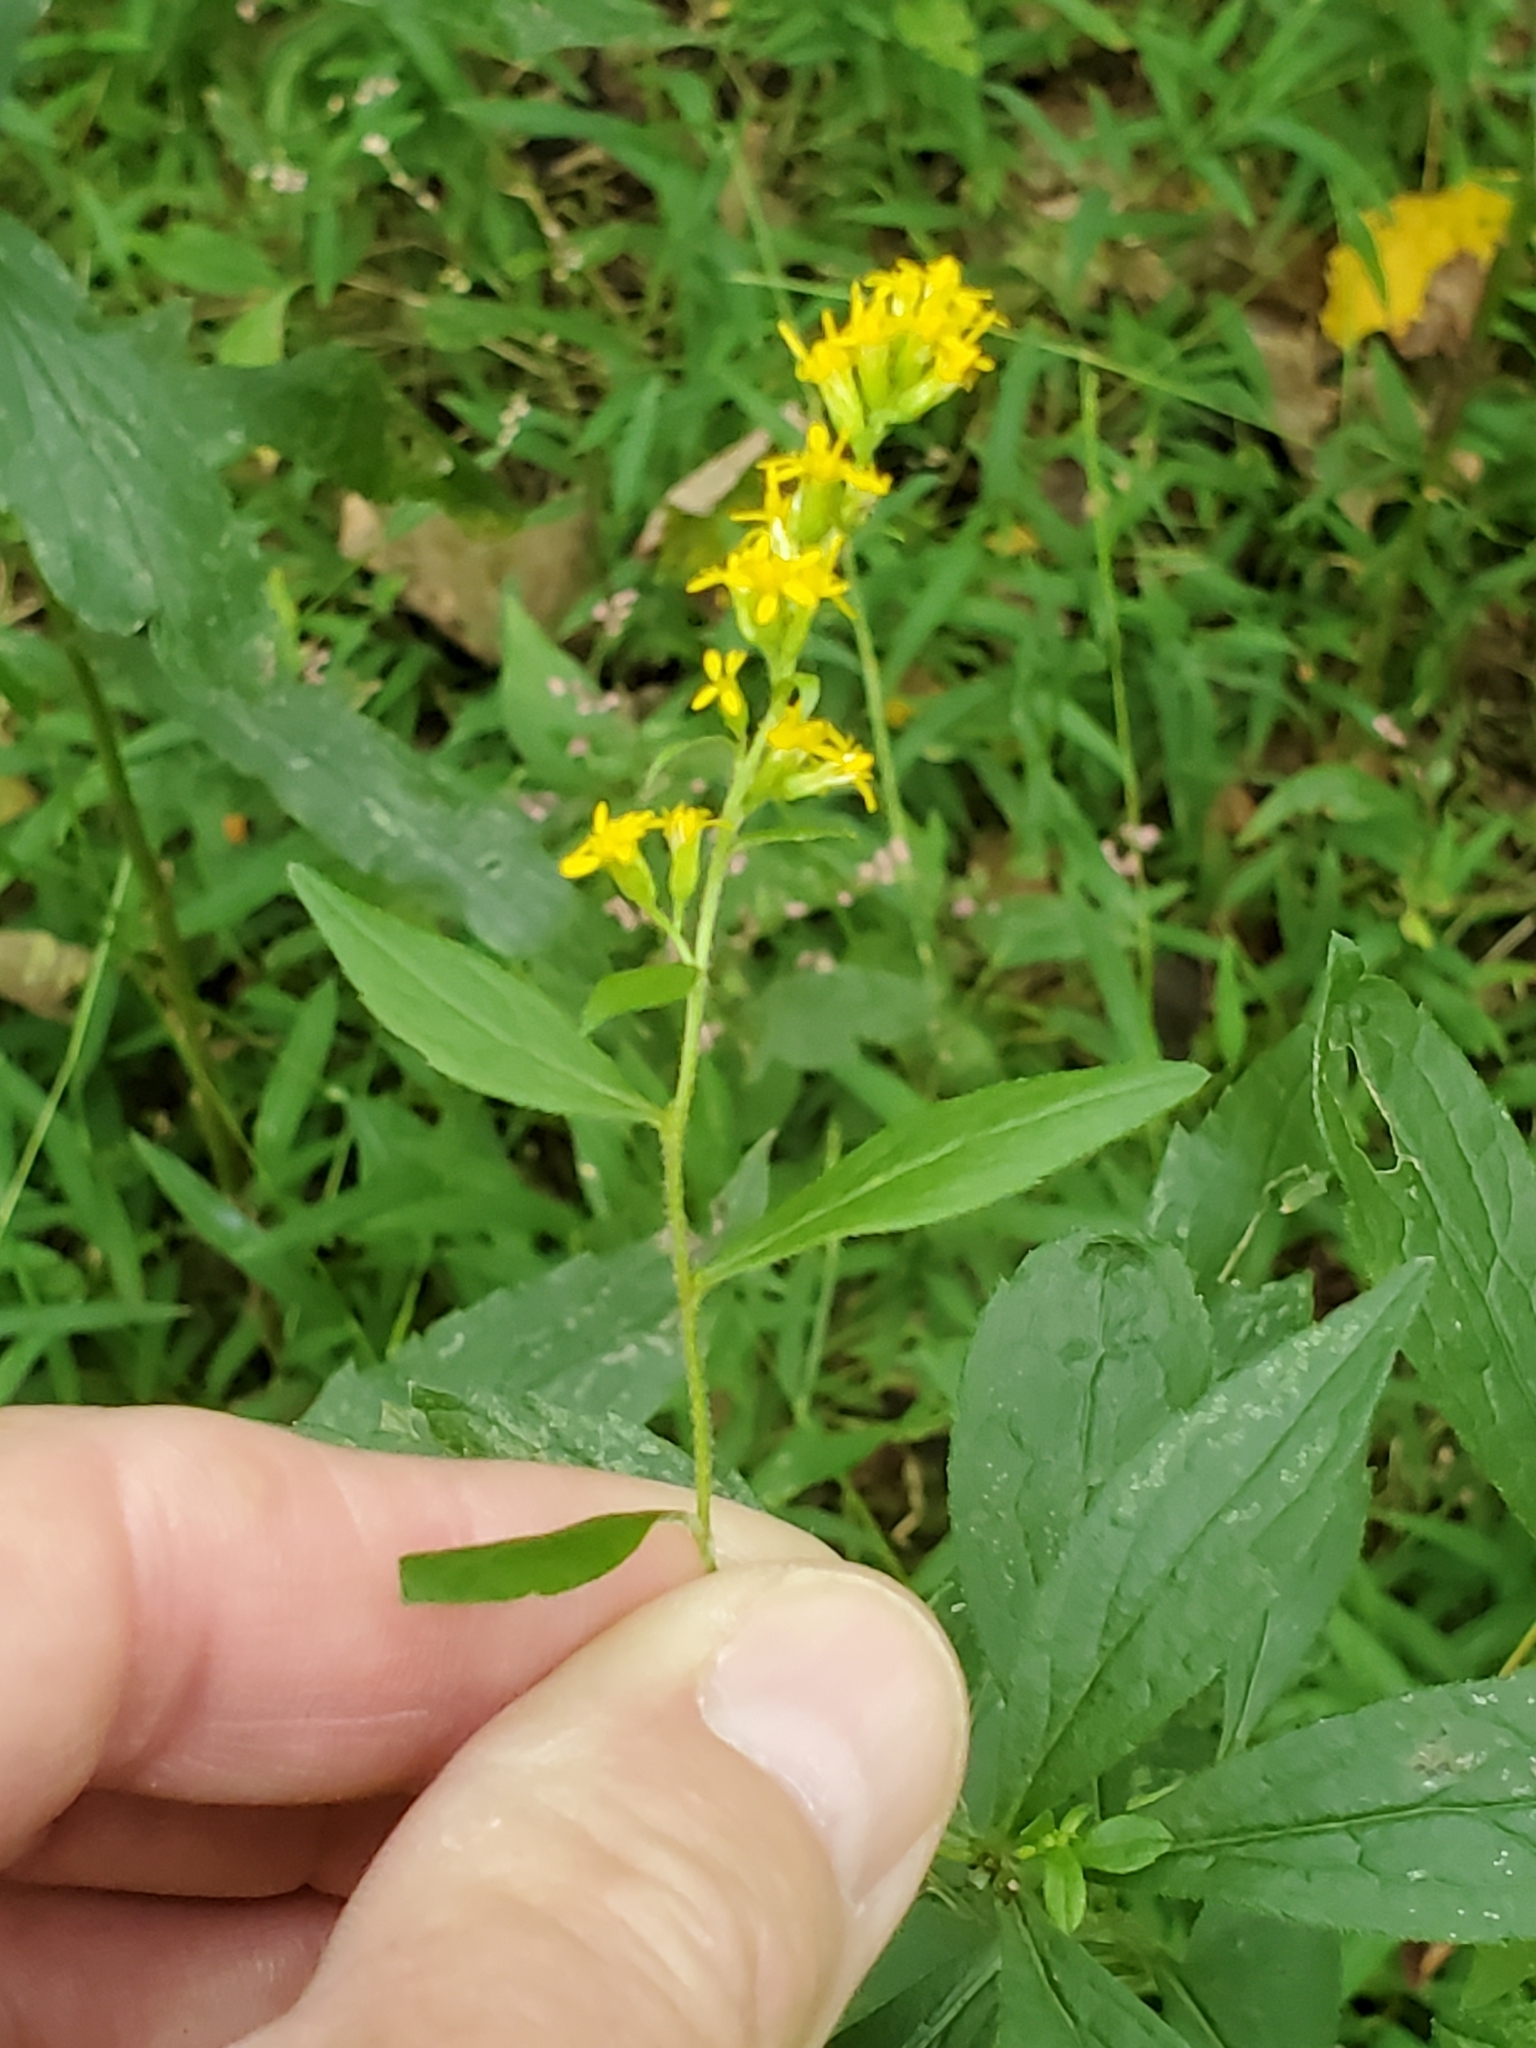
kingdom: Plantae
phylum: Tracheophyta
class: Magnoliopsida
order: Asterales
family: Asteraceae
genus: Solidago
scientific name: Solidago rugosa
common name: Rough-stemmed goldenrod
